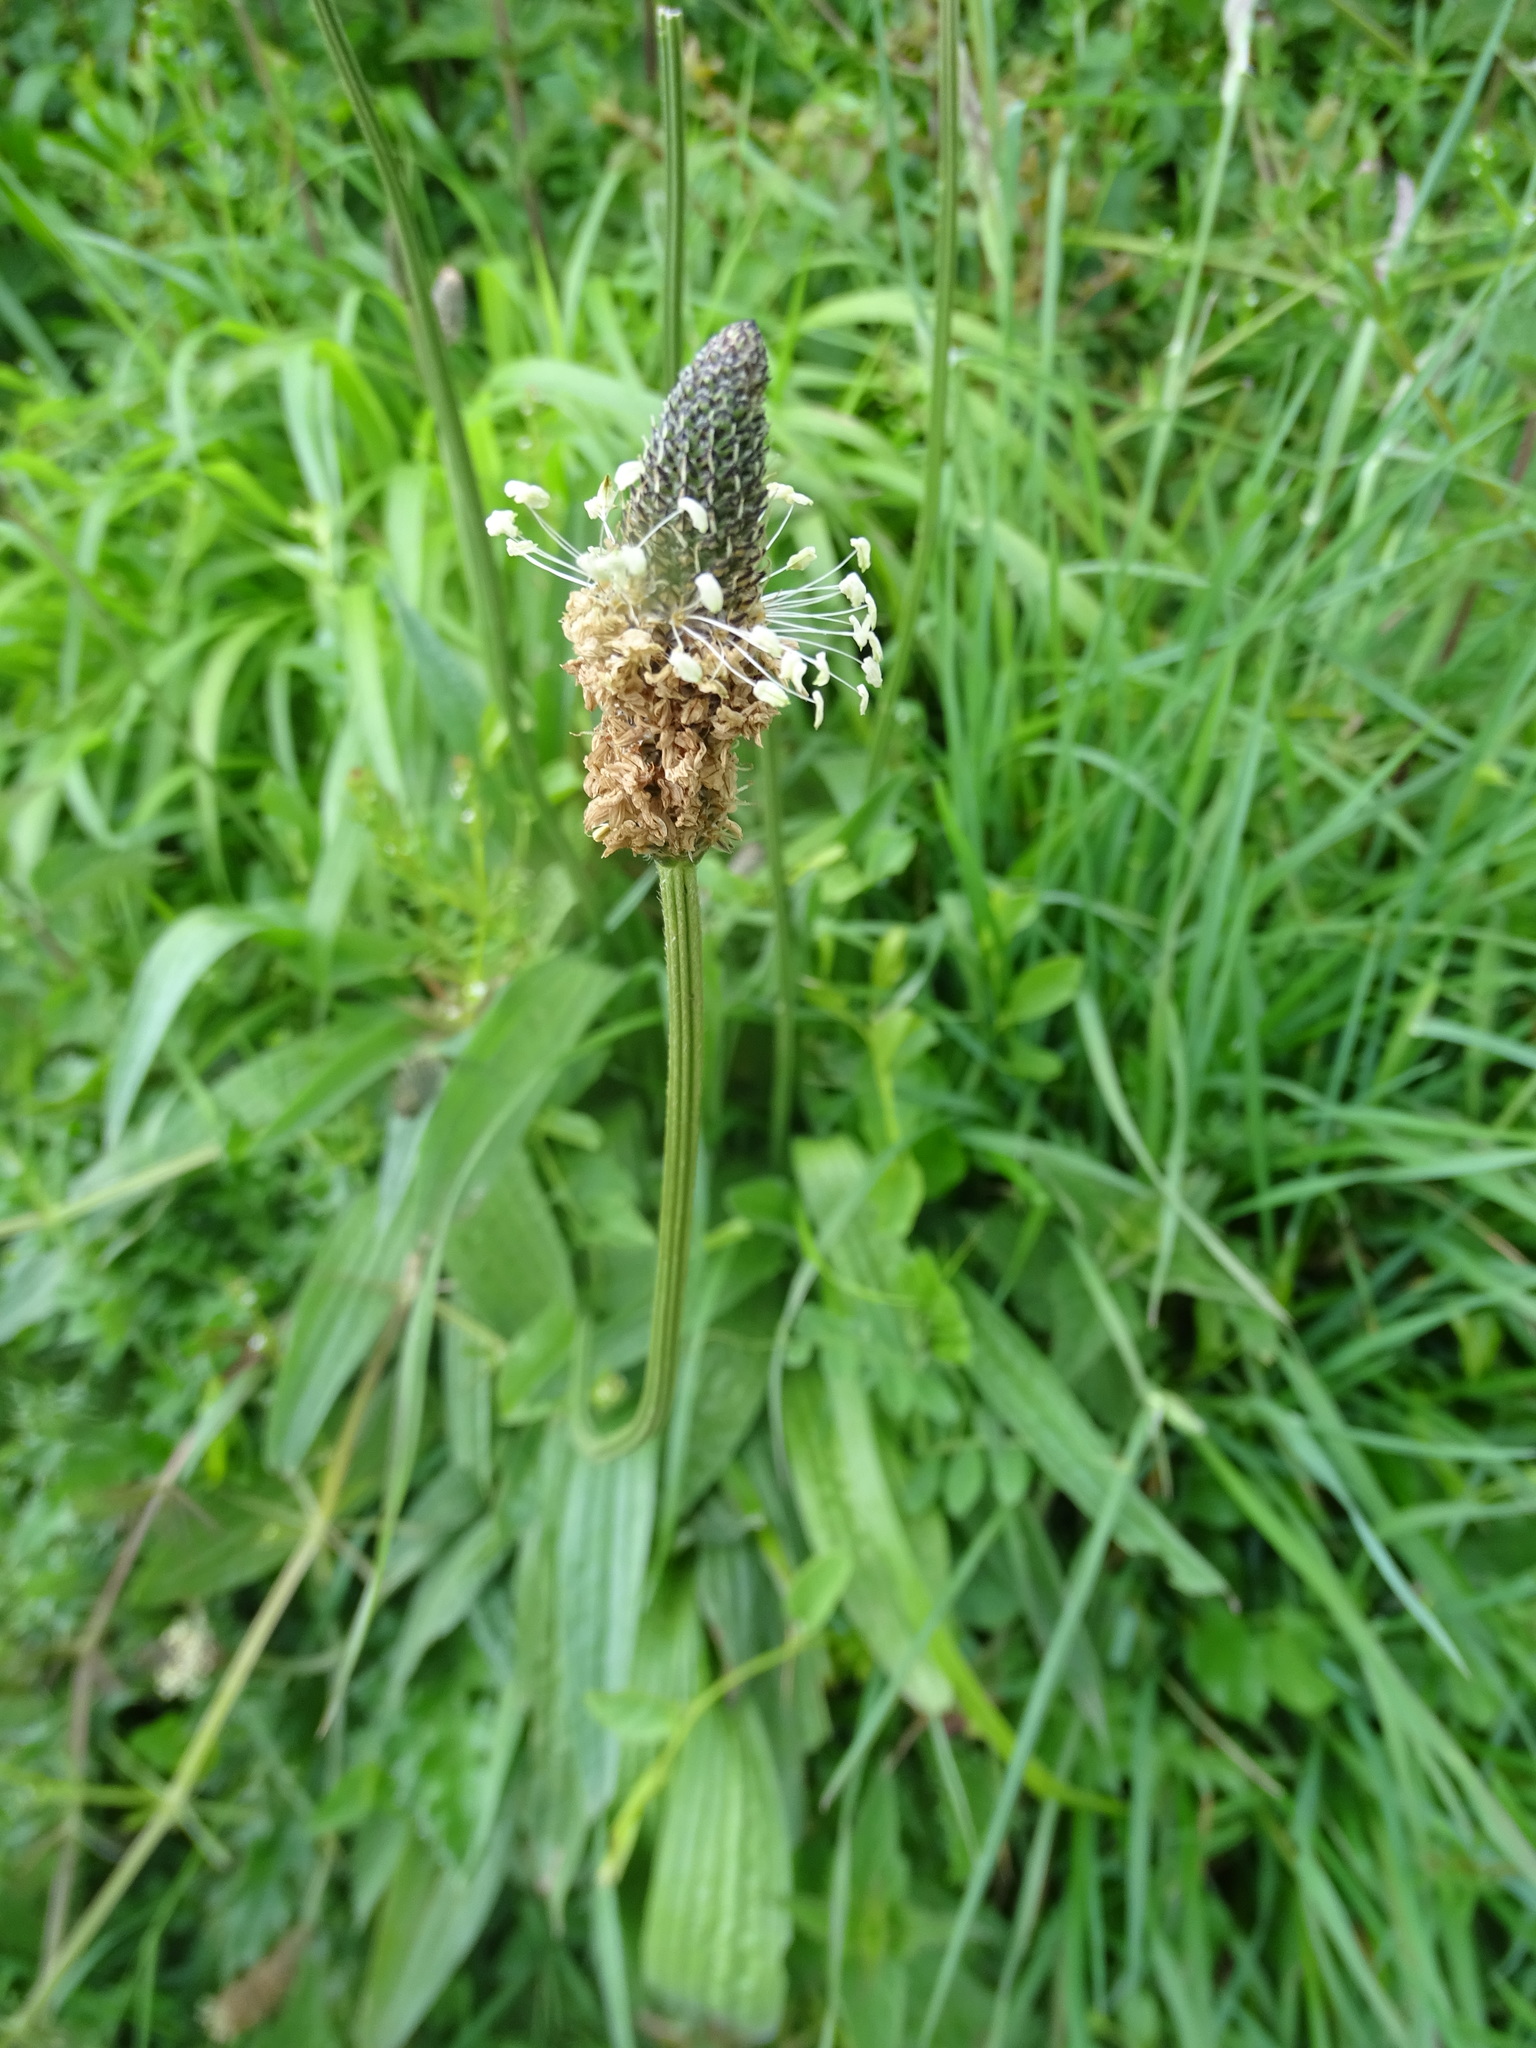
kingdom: Plantae
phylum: Tracheophyta
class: Magnoliopsida
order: Lamiales
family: Plantaginaceae
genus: Plantago
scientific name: Plantago lanceolata
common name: Ribwort plantain
